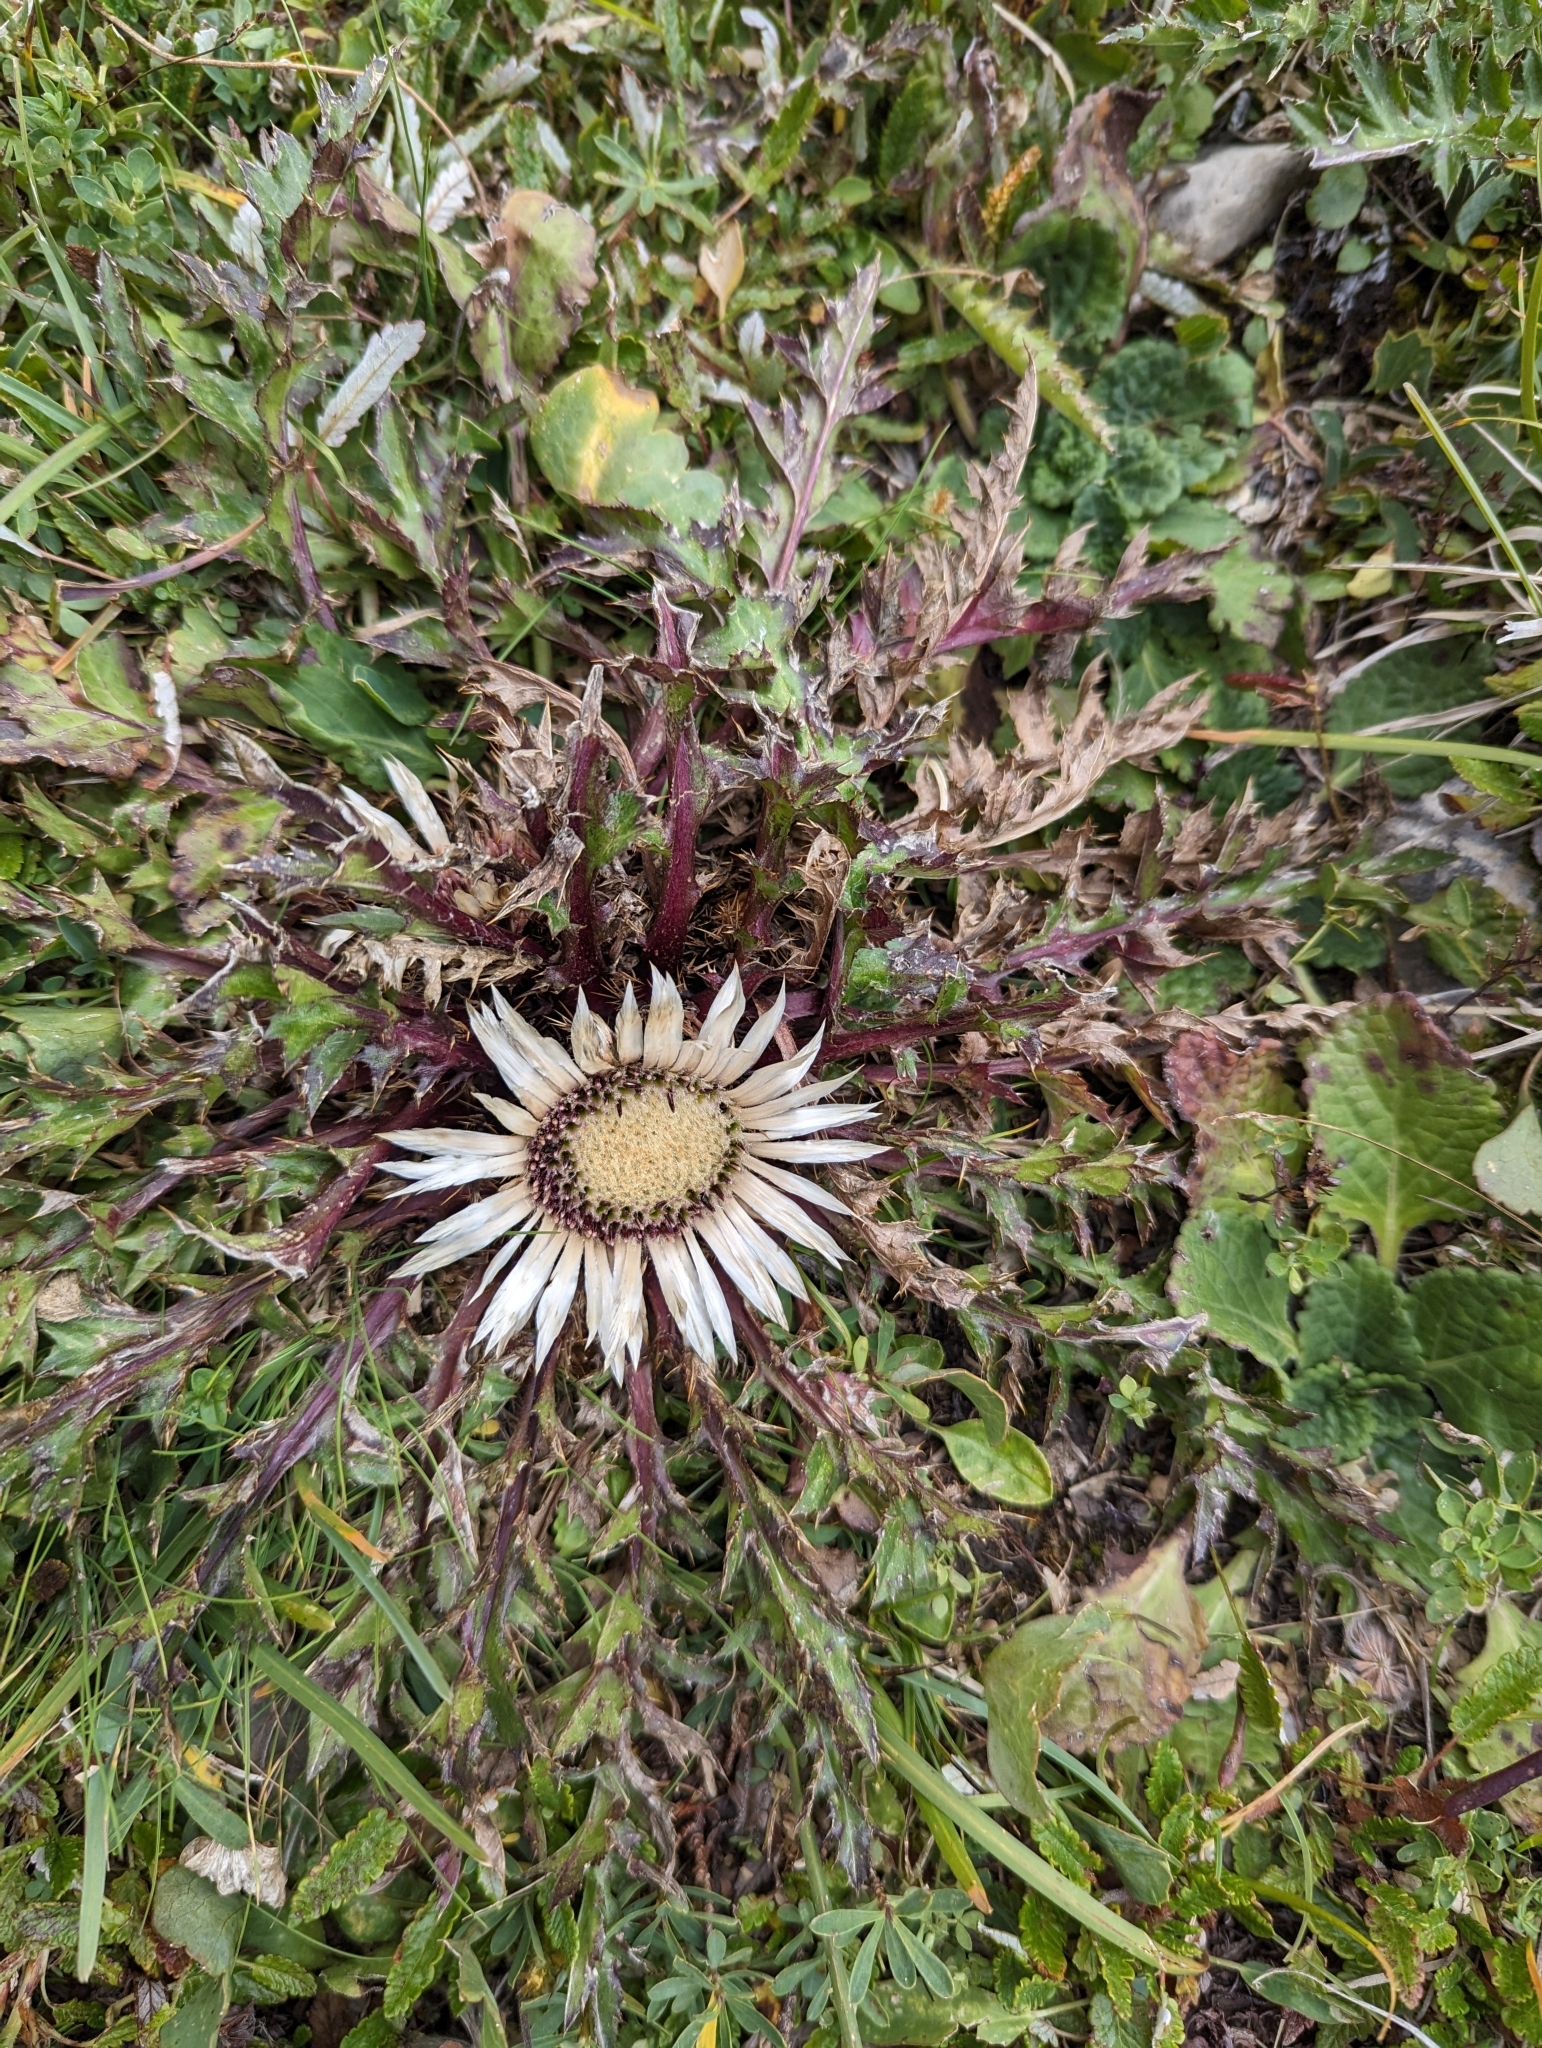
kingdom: Plantae
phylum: Tracheophyta
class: Magnoliopsida
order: Asterales
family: Asteraceae
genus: Carlina
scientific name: Carlina acaulis
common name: Stemless carline thistle
